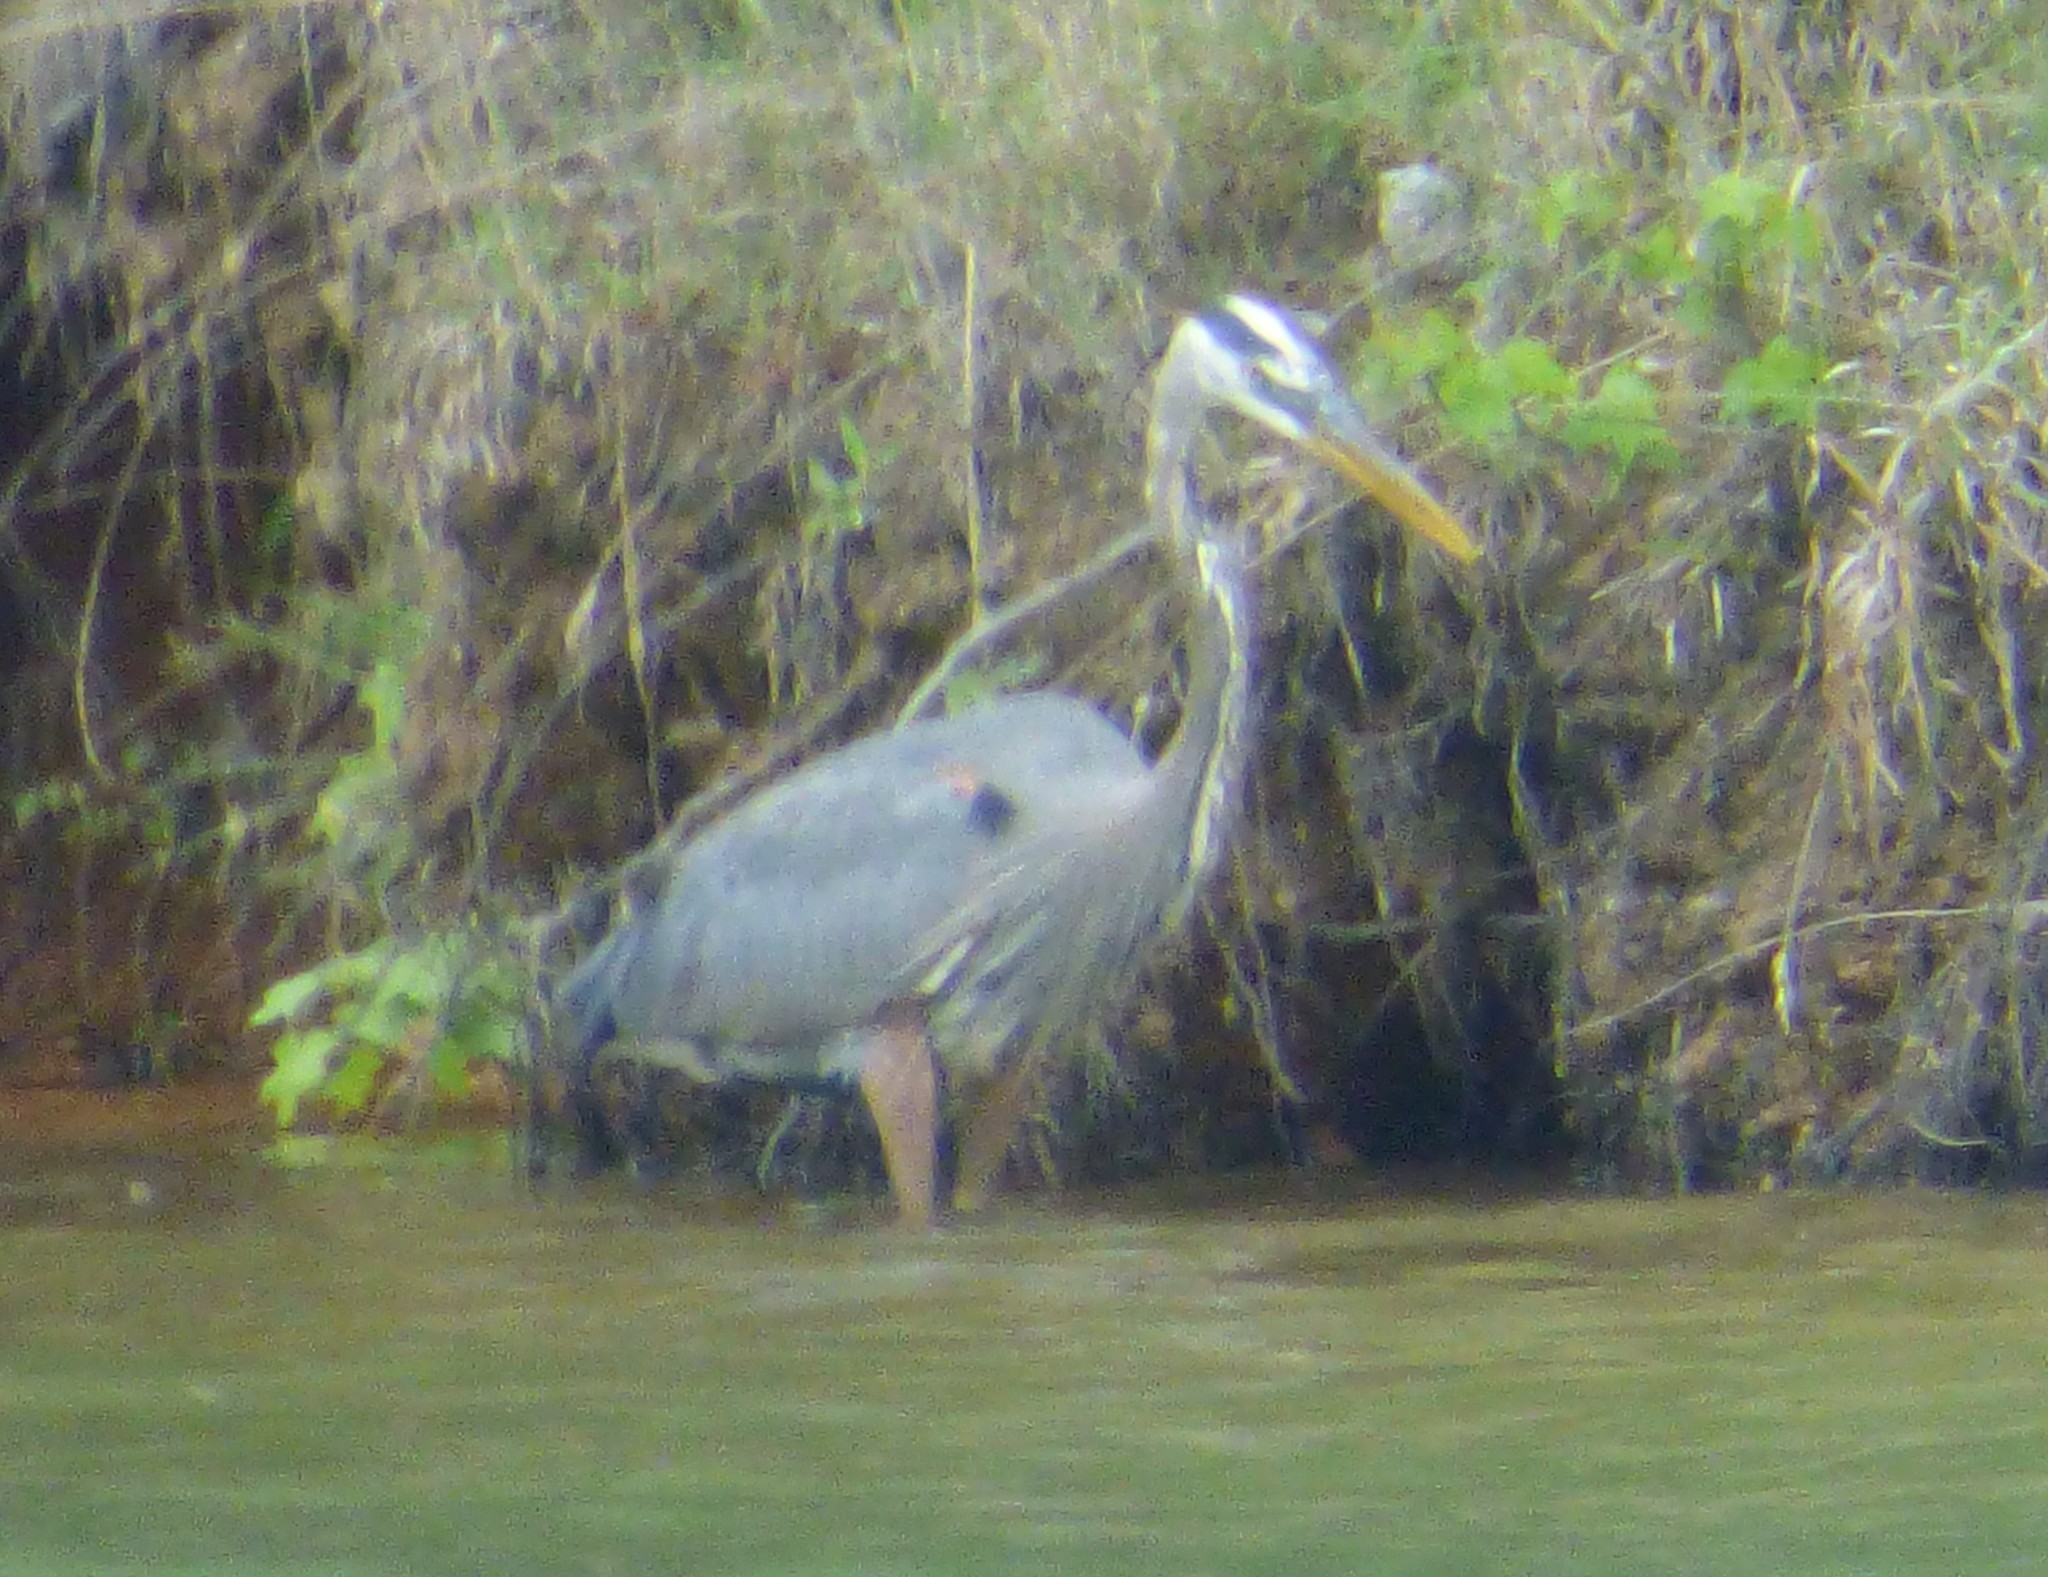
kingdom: Animalia
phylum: Chordata
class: Aves
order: Pelecaniformes
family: Ardeidae
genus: Ardea
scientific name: Ardea herodias
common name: Great blue heron
